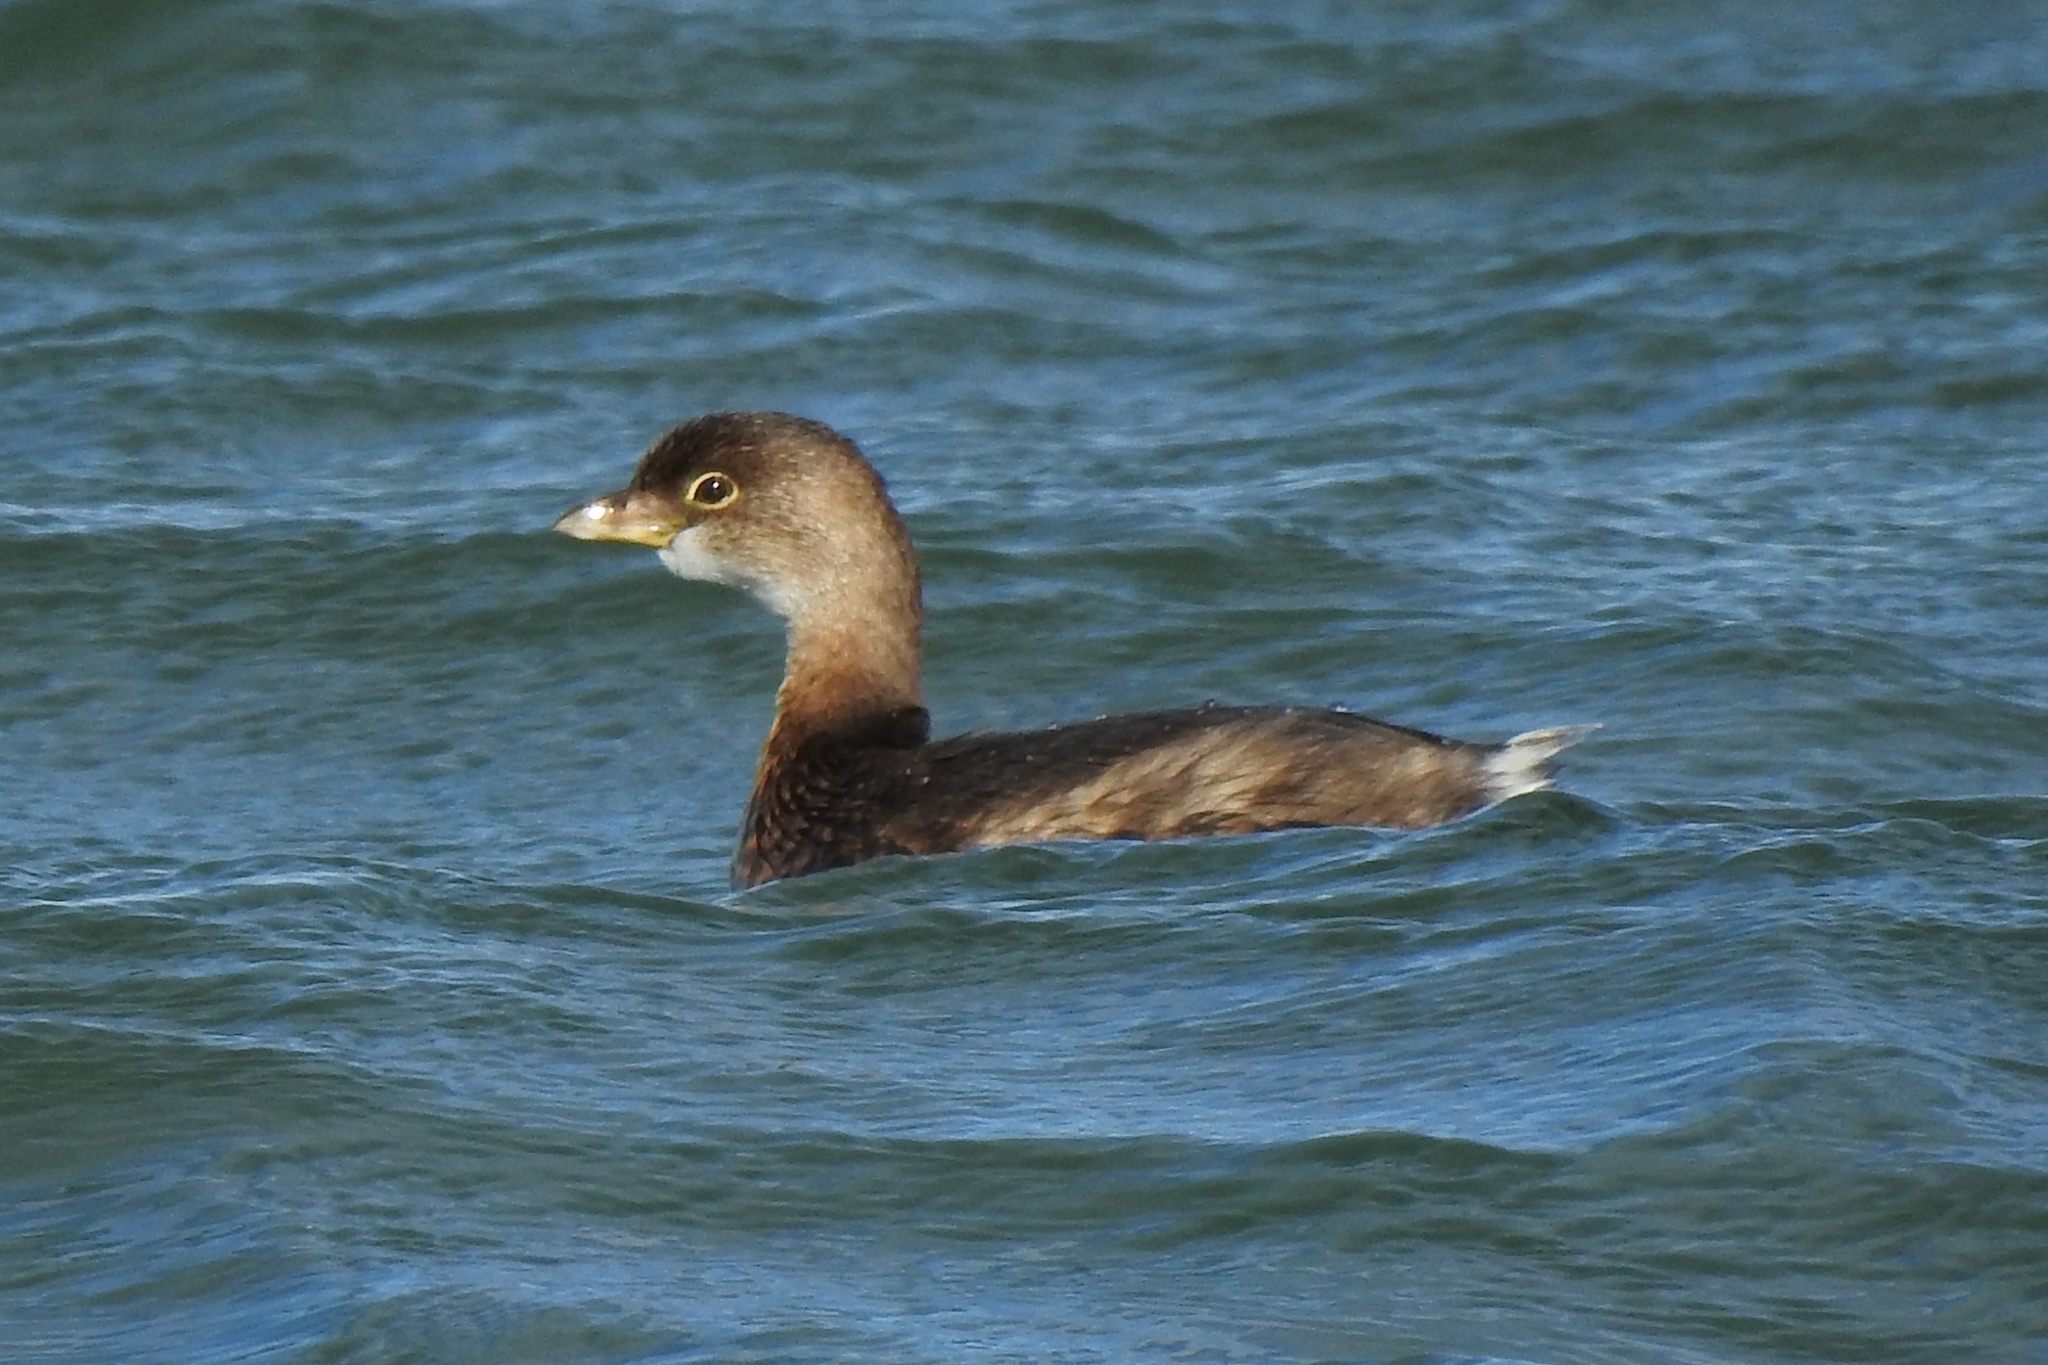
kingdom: Animalia
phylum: Chordata
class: Aves
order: Podicipediformes
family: Podicipedidae
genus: Podilymbus
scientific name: Podilymbus podiceps
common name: Pied-billed grebe
